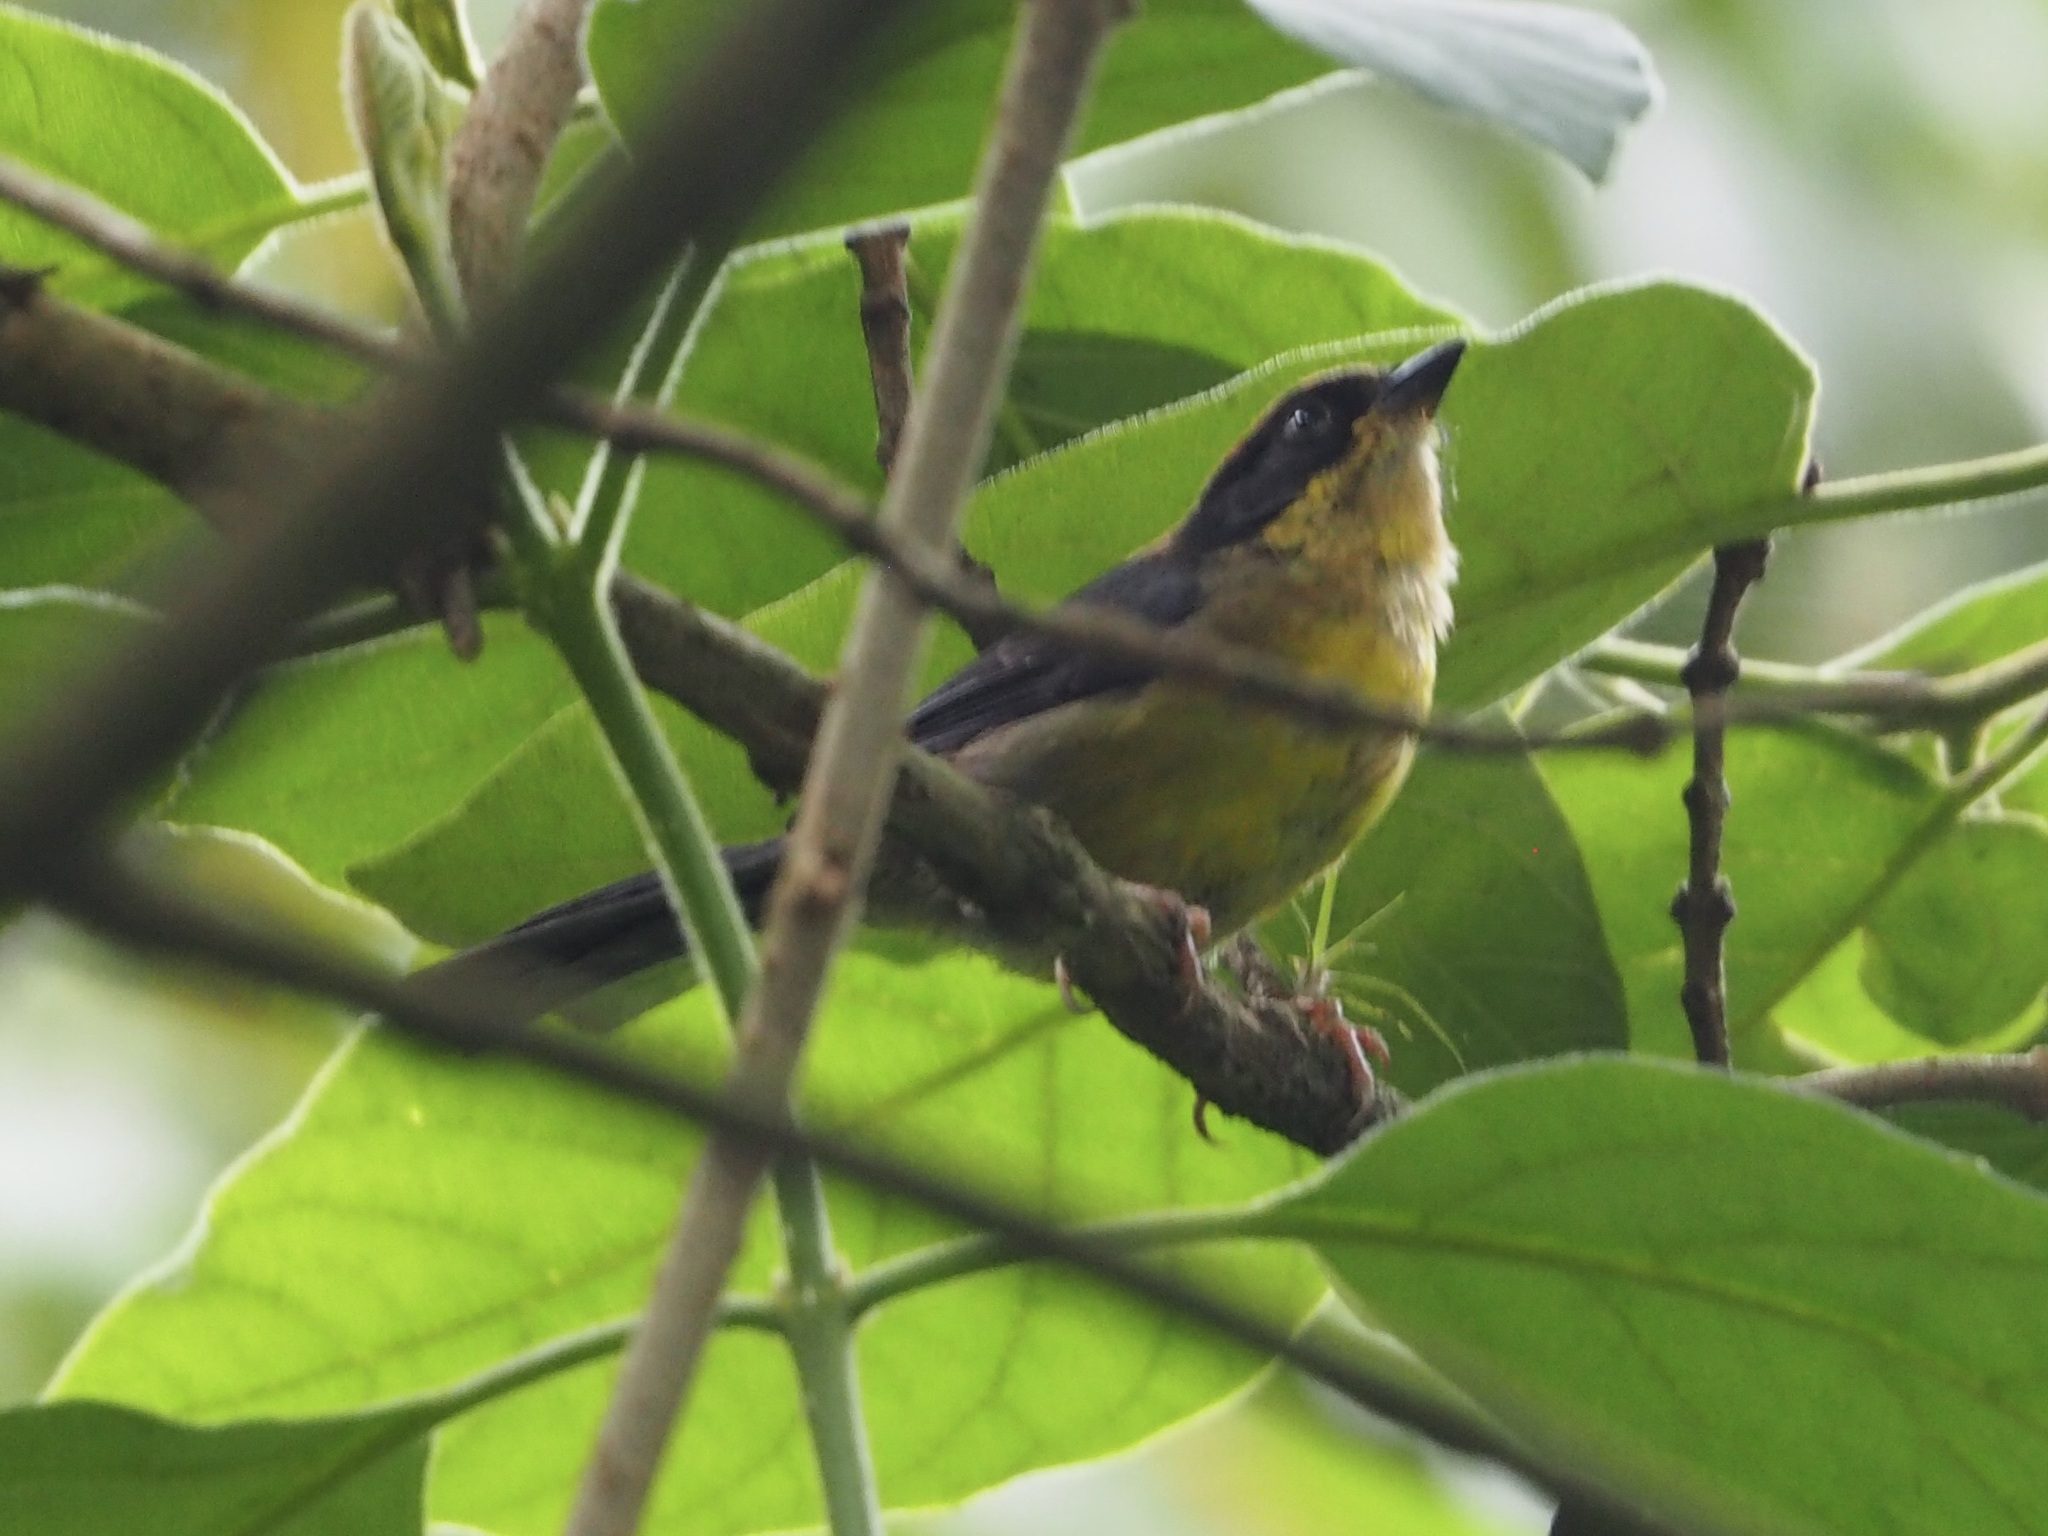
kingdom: Animalia
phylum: Chordata
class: Aves
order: Passeriformes
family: Passerellidae
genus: Atlapetes
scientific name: Atlapetes latinuchus
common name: Yellow-breasted brushfinch
